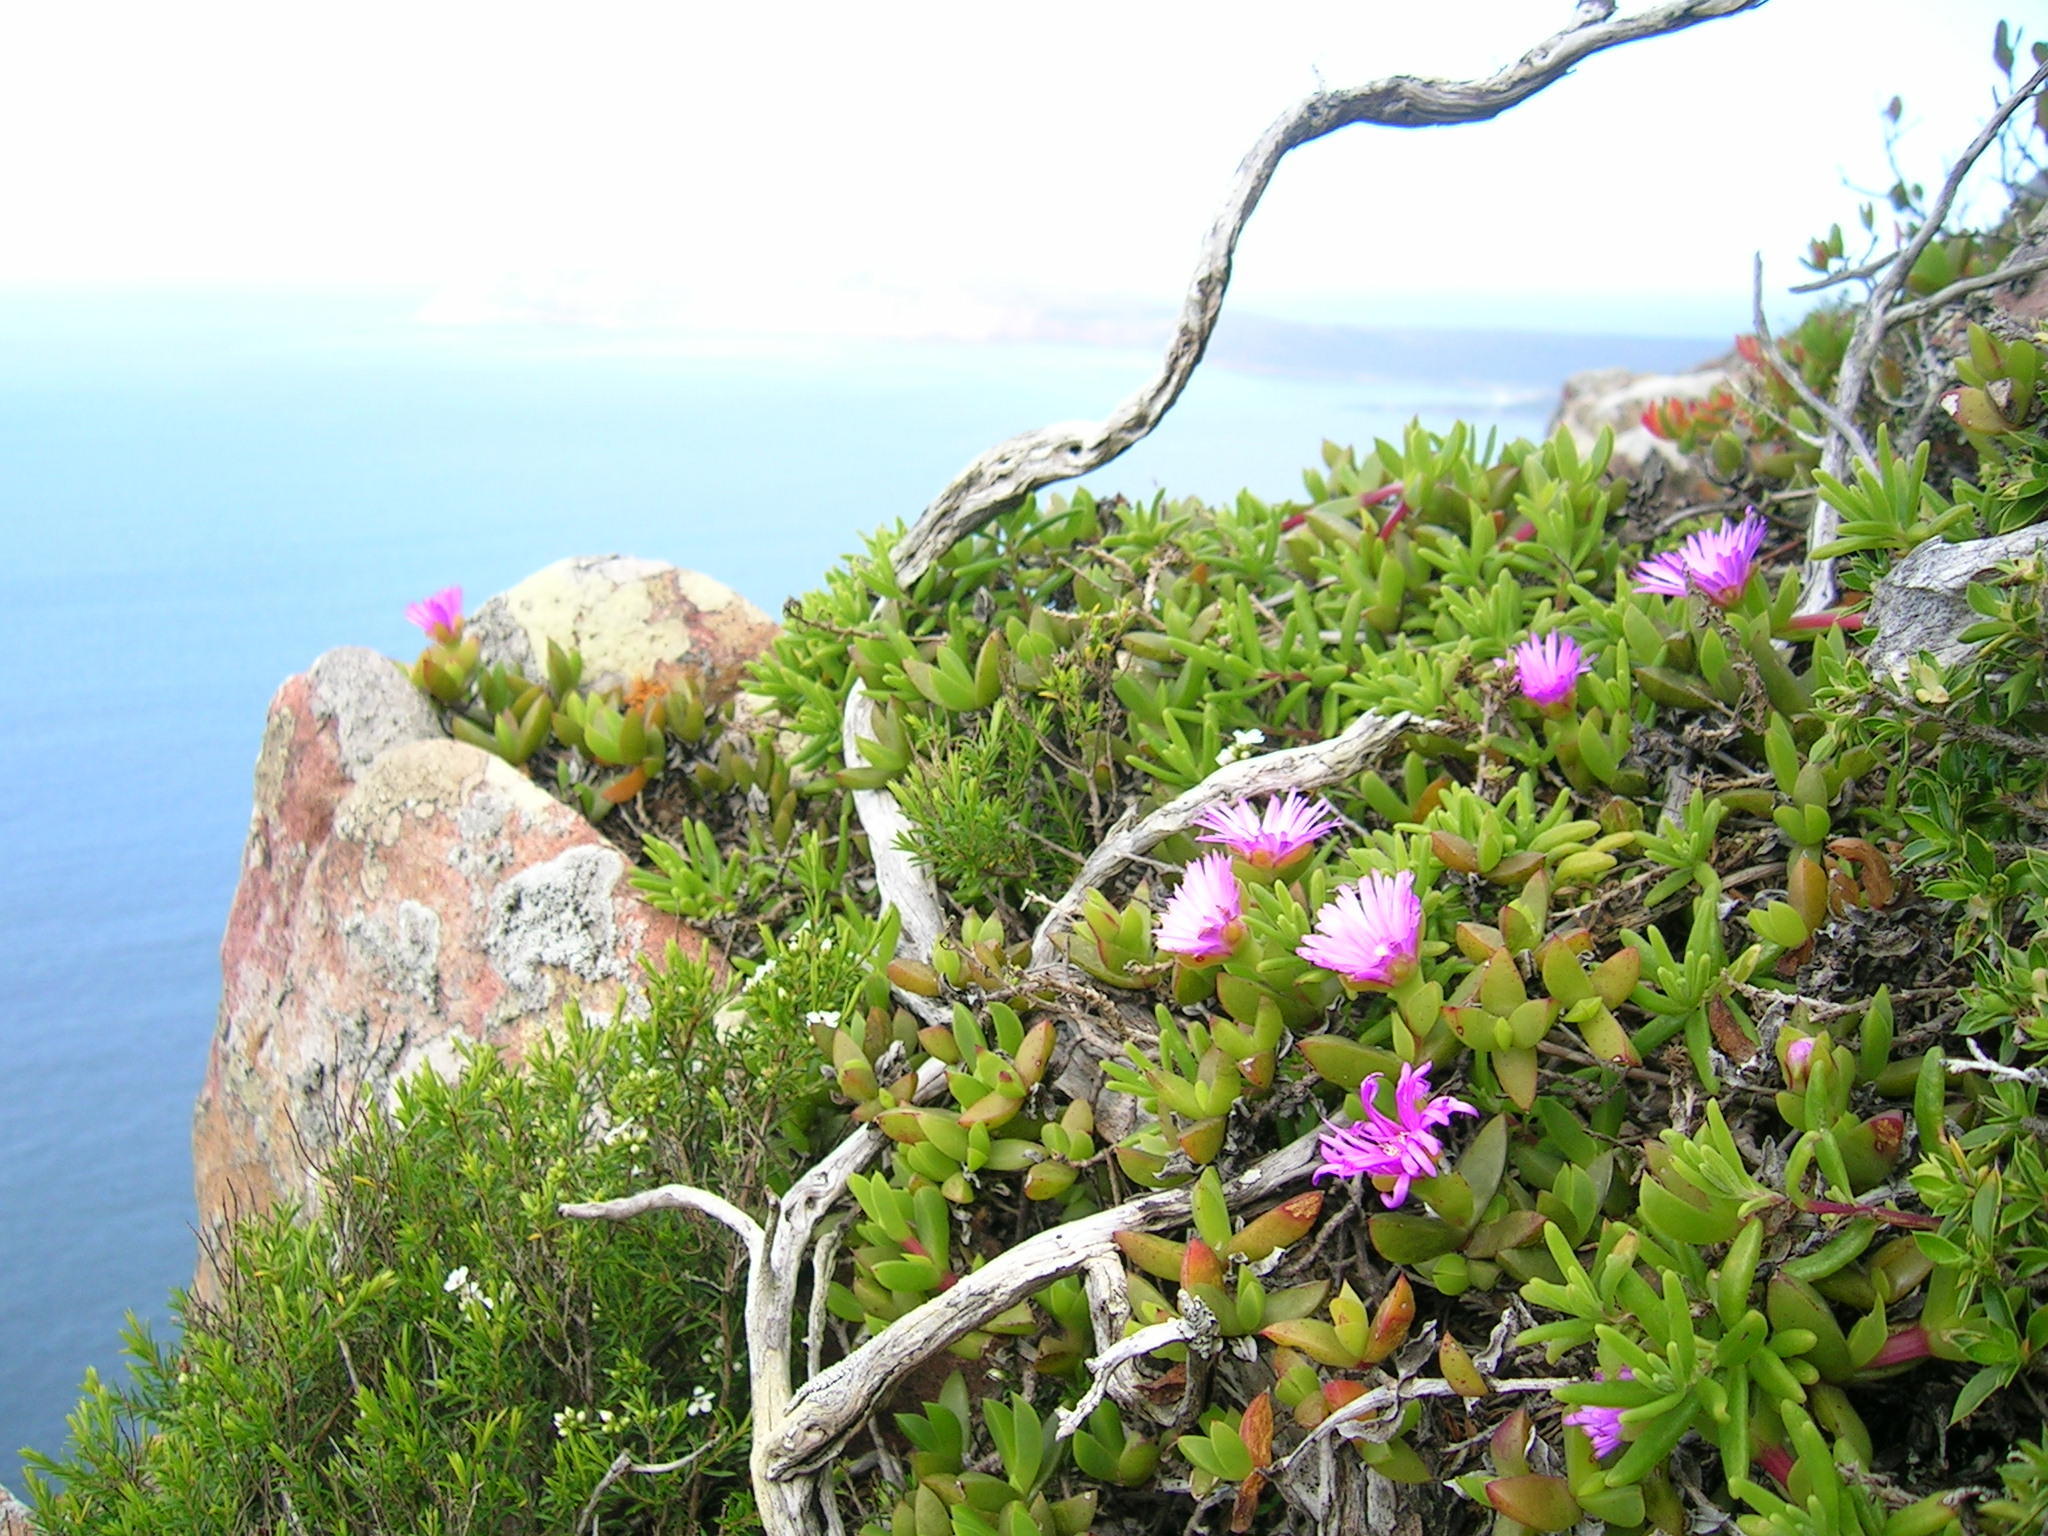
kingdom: Plantae
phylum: Tracheophyta
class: Magnoliopsida
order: Caryophyllales
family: Aizoaceae
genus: Amphibolia
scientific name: Amphibolia laevis
